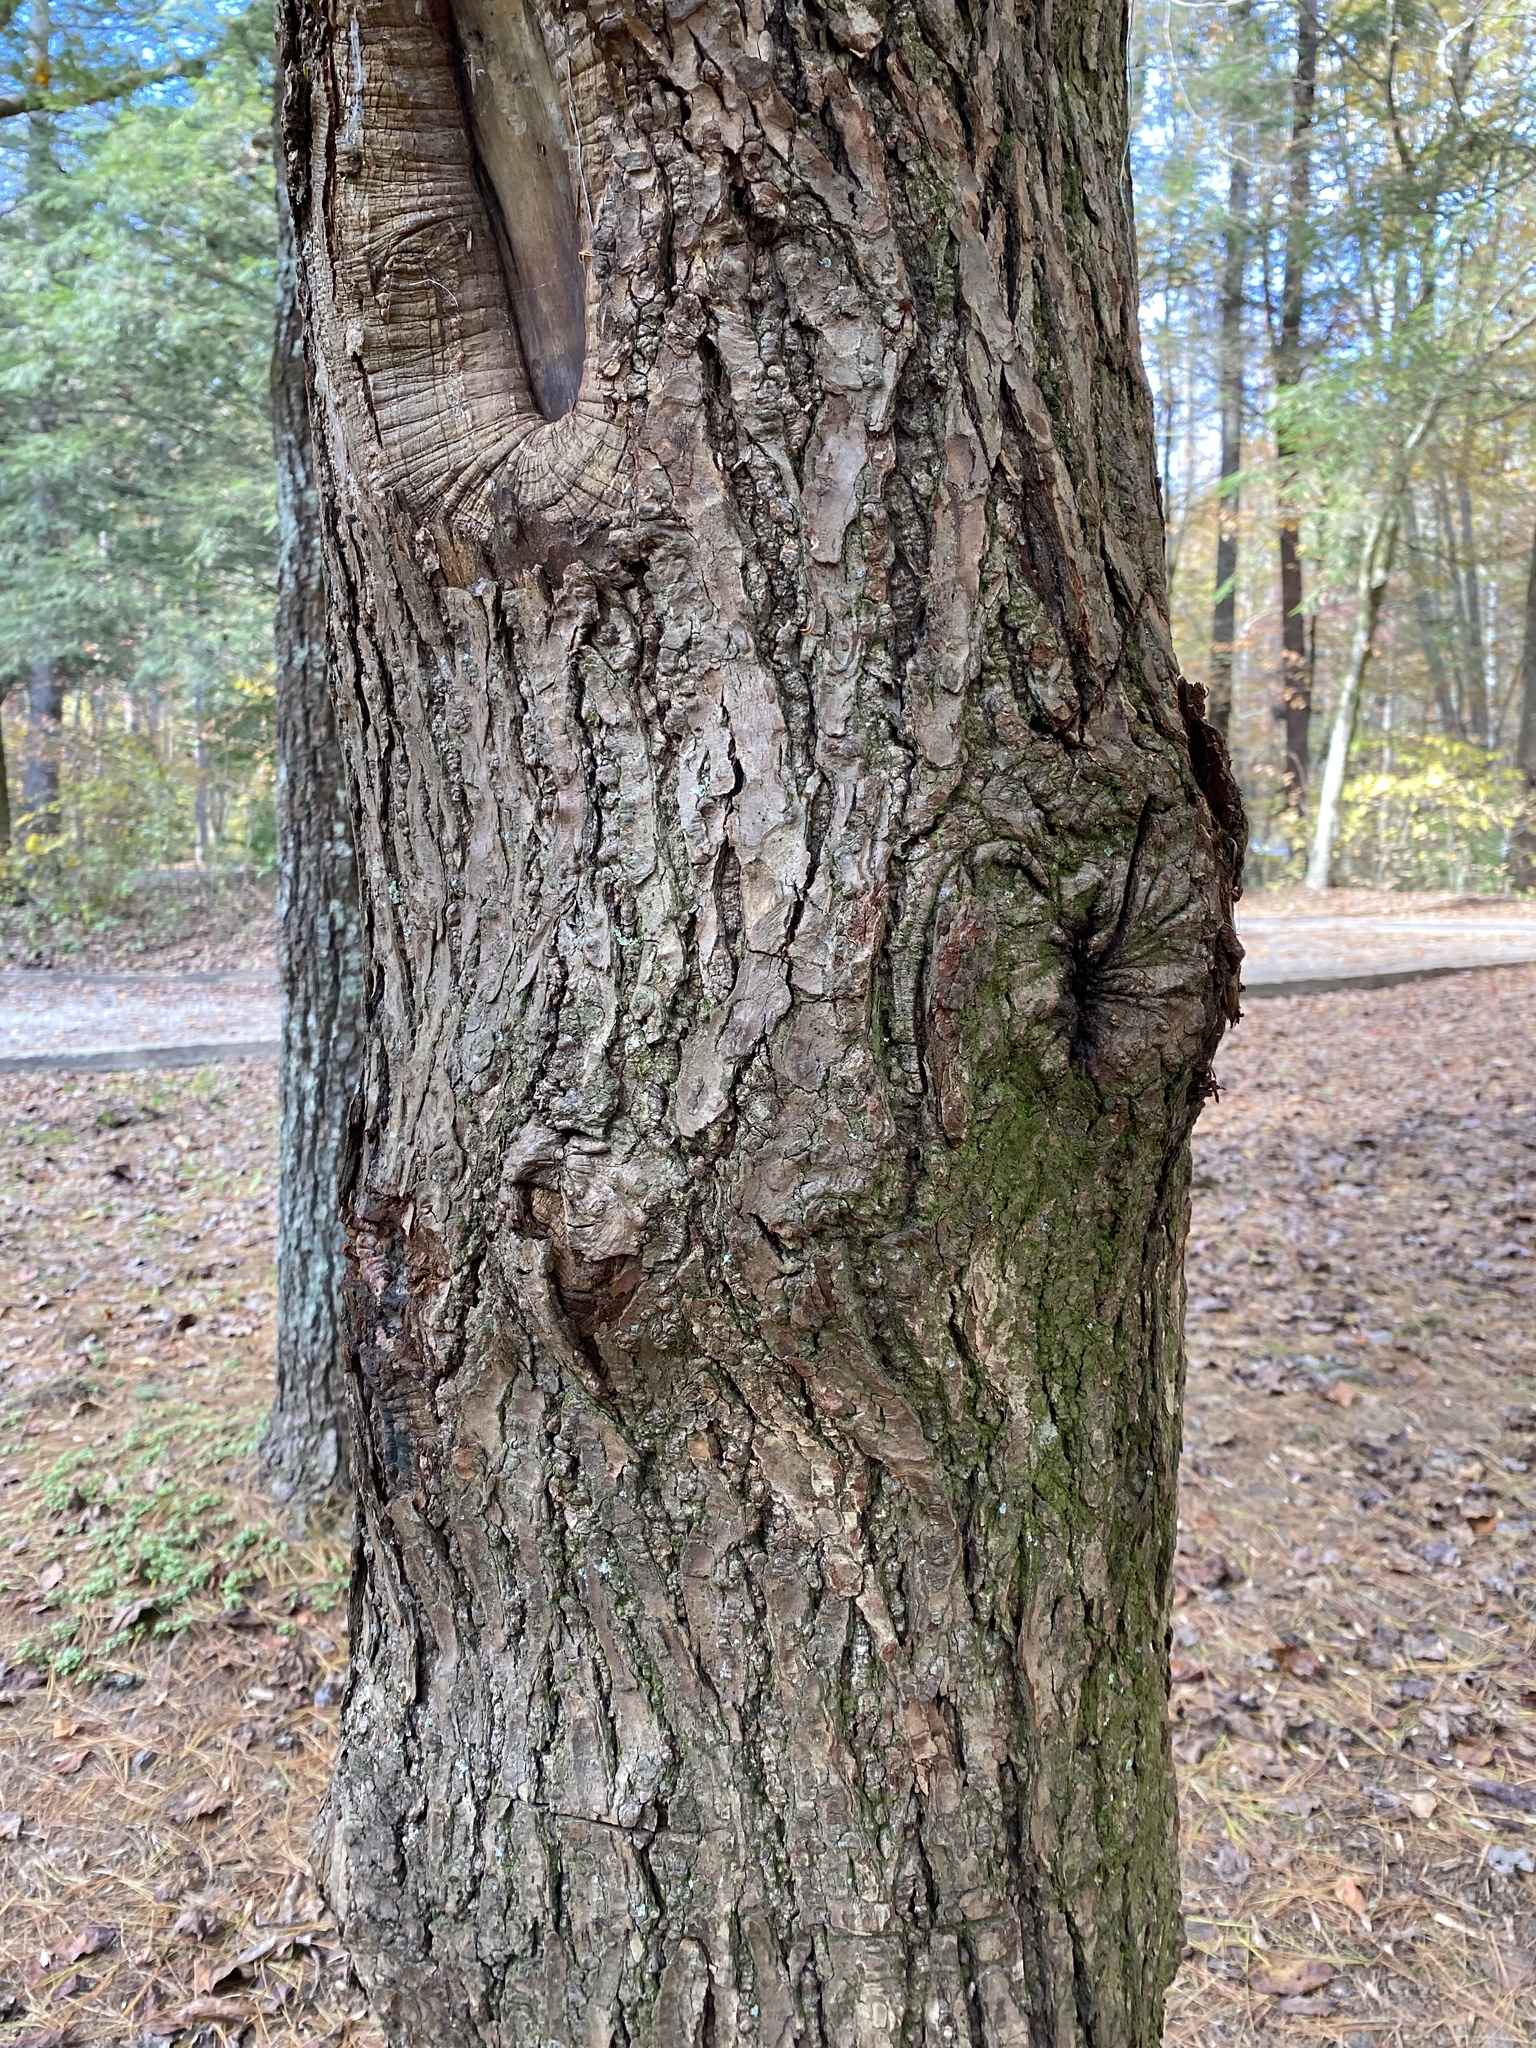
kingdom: Plantae
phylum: Tracheophyta
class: Pinopsida
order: Pinales
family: Pinaceae
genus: Tsuga
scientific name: Tsuga canadensis
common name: Eastern hemlock
